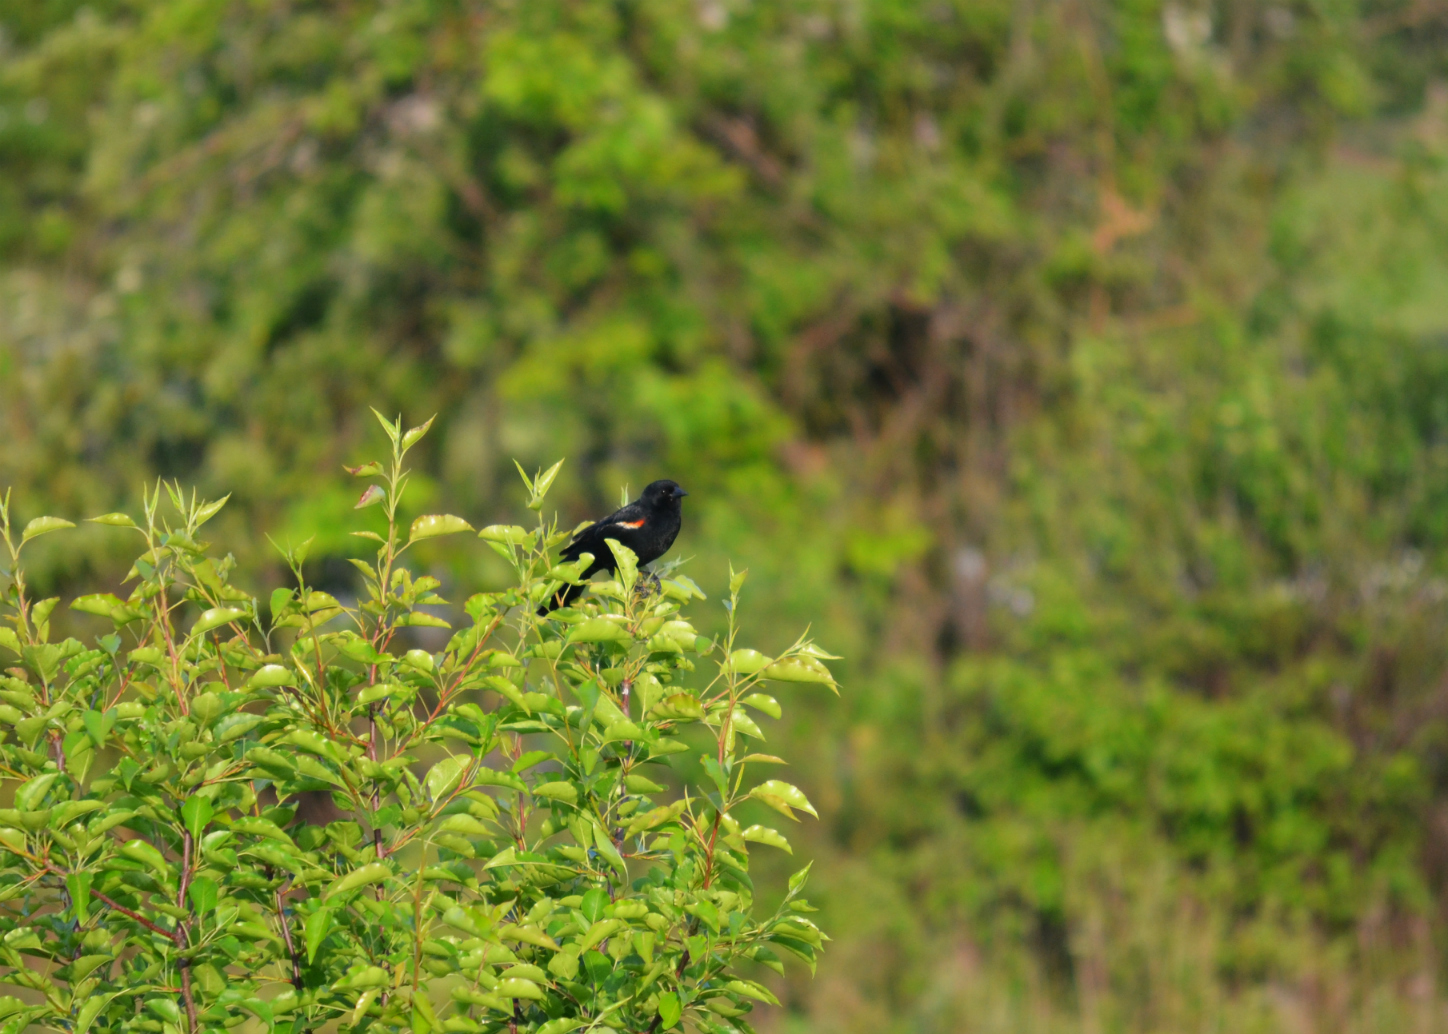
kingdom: Animalia
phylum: Chordata
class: Aves
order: Passeriformes
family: Icteridae
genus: Agelaius
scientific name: Agelaius phoeniceus
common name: Red-winged blackbird
